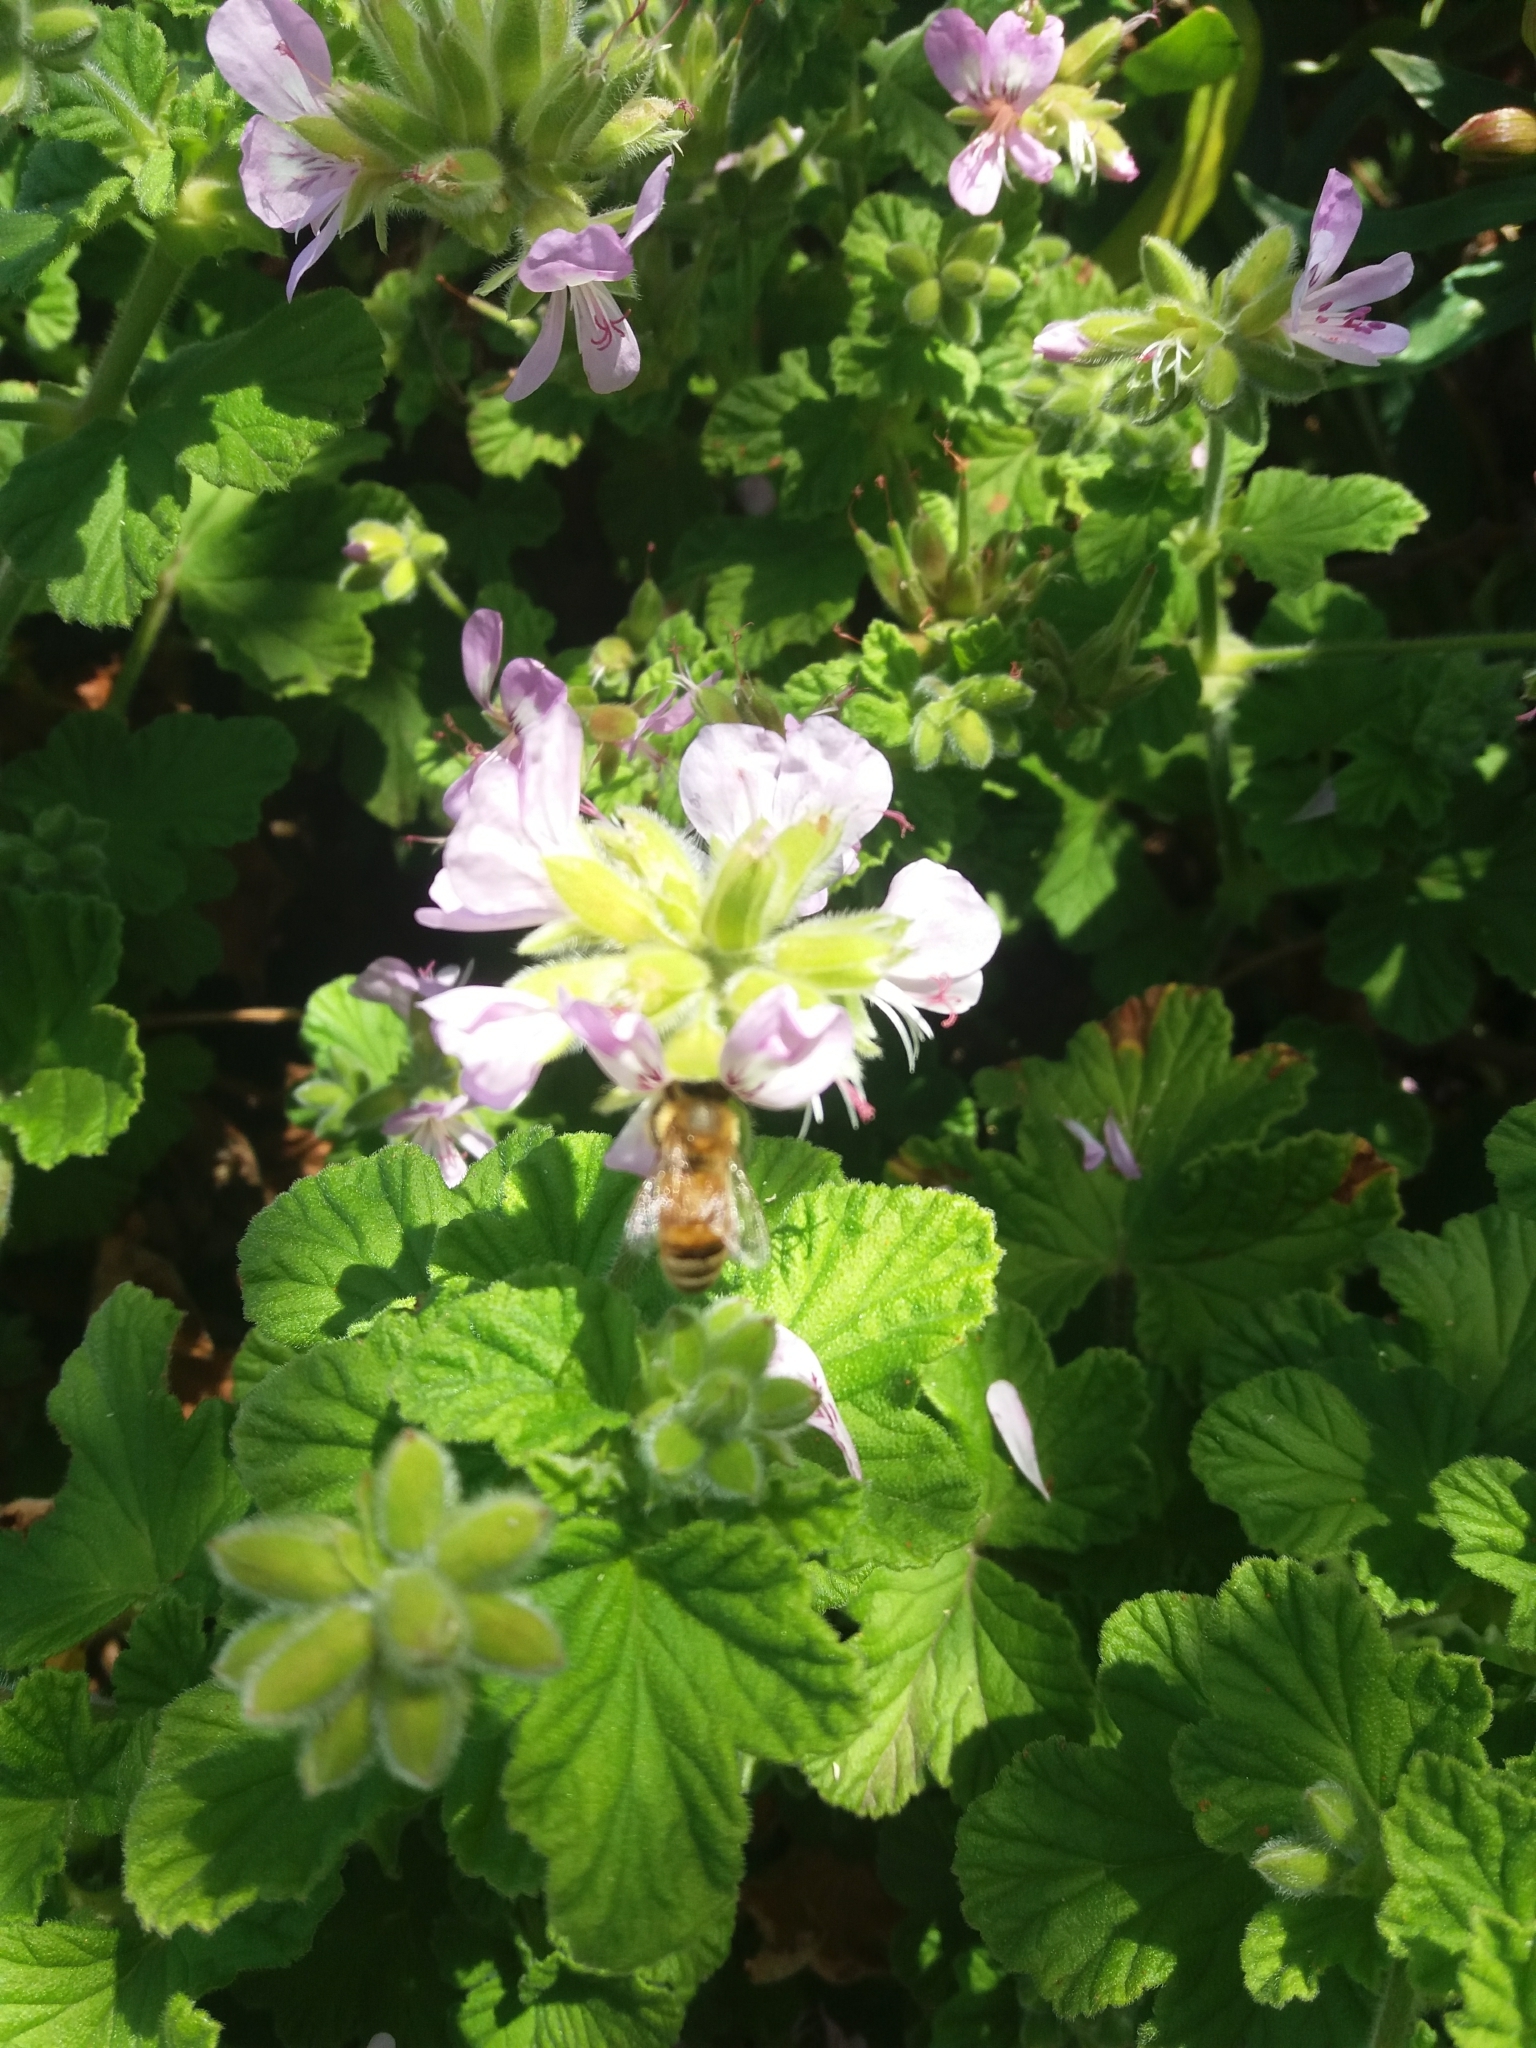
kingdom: Animalia
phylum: Arthropoda
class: Insecta
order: Hymenoptera
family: Apidae
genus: Apis
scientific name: Apis mellifera
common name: Honey bee
